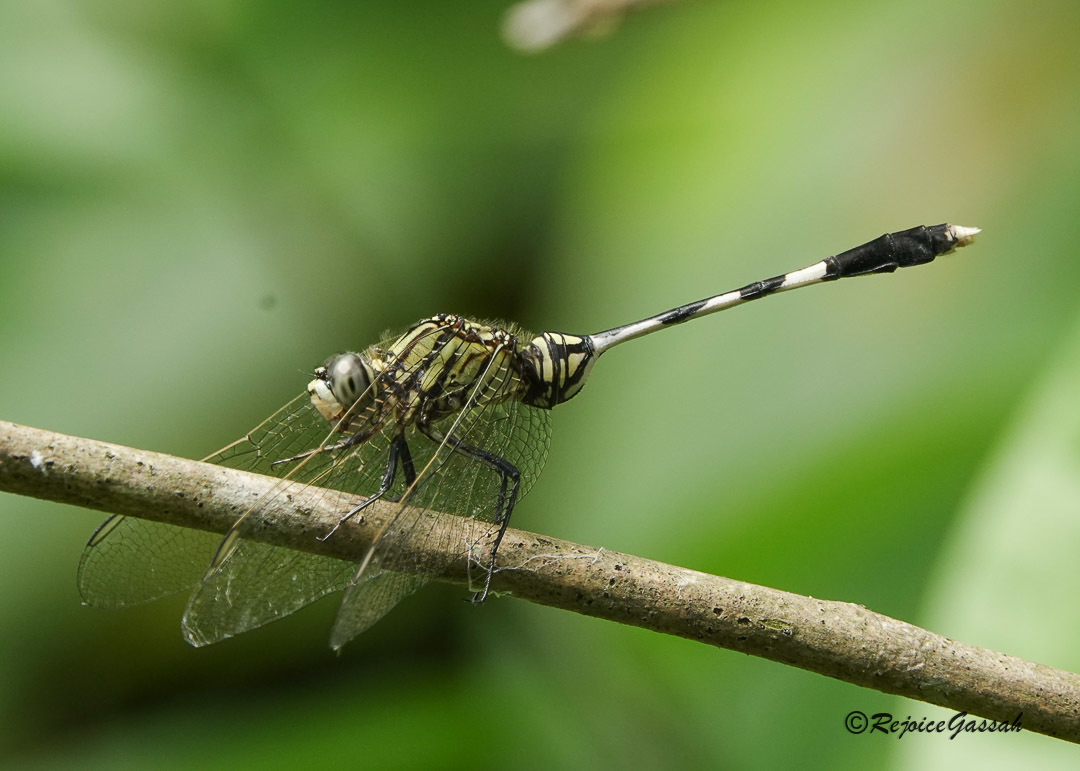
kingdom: Animalia
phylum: Arthropoda
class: Insecta
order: Odonata
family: Libellulidae
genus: Orthetrum
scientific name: Orthetrum sabina
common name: Slender skimmer
